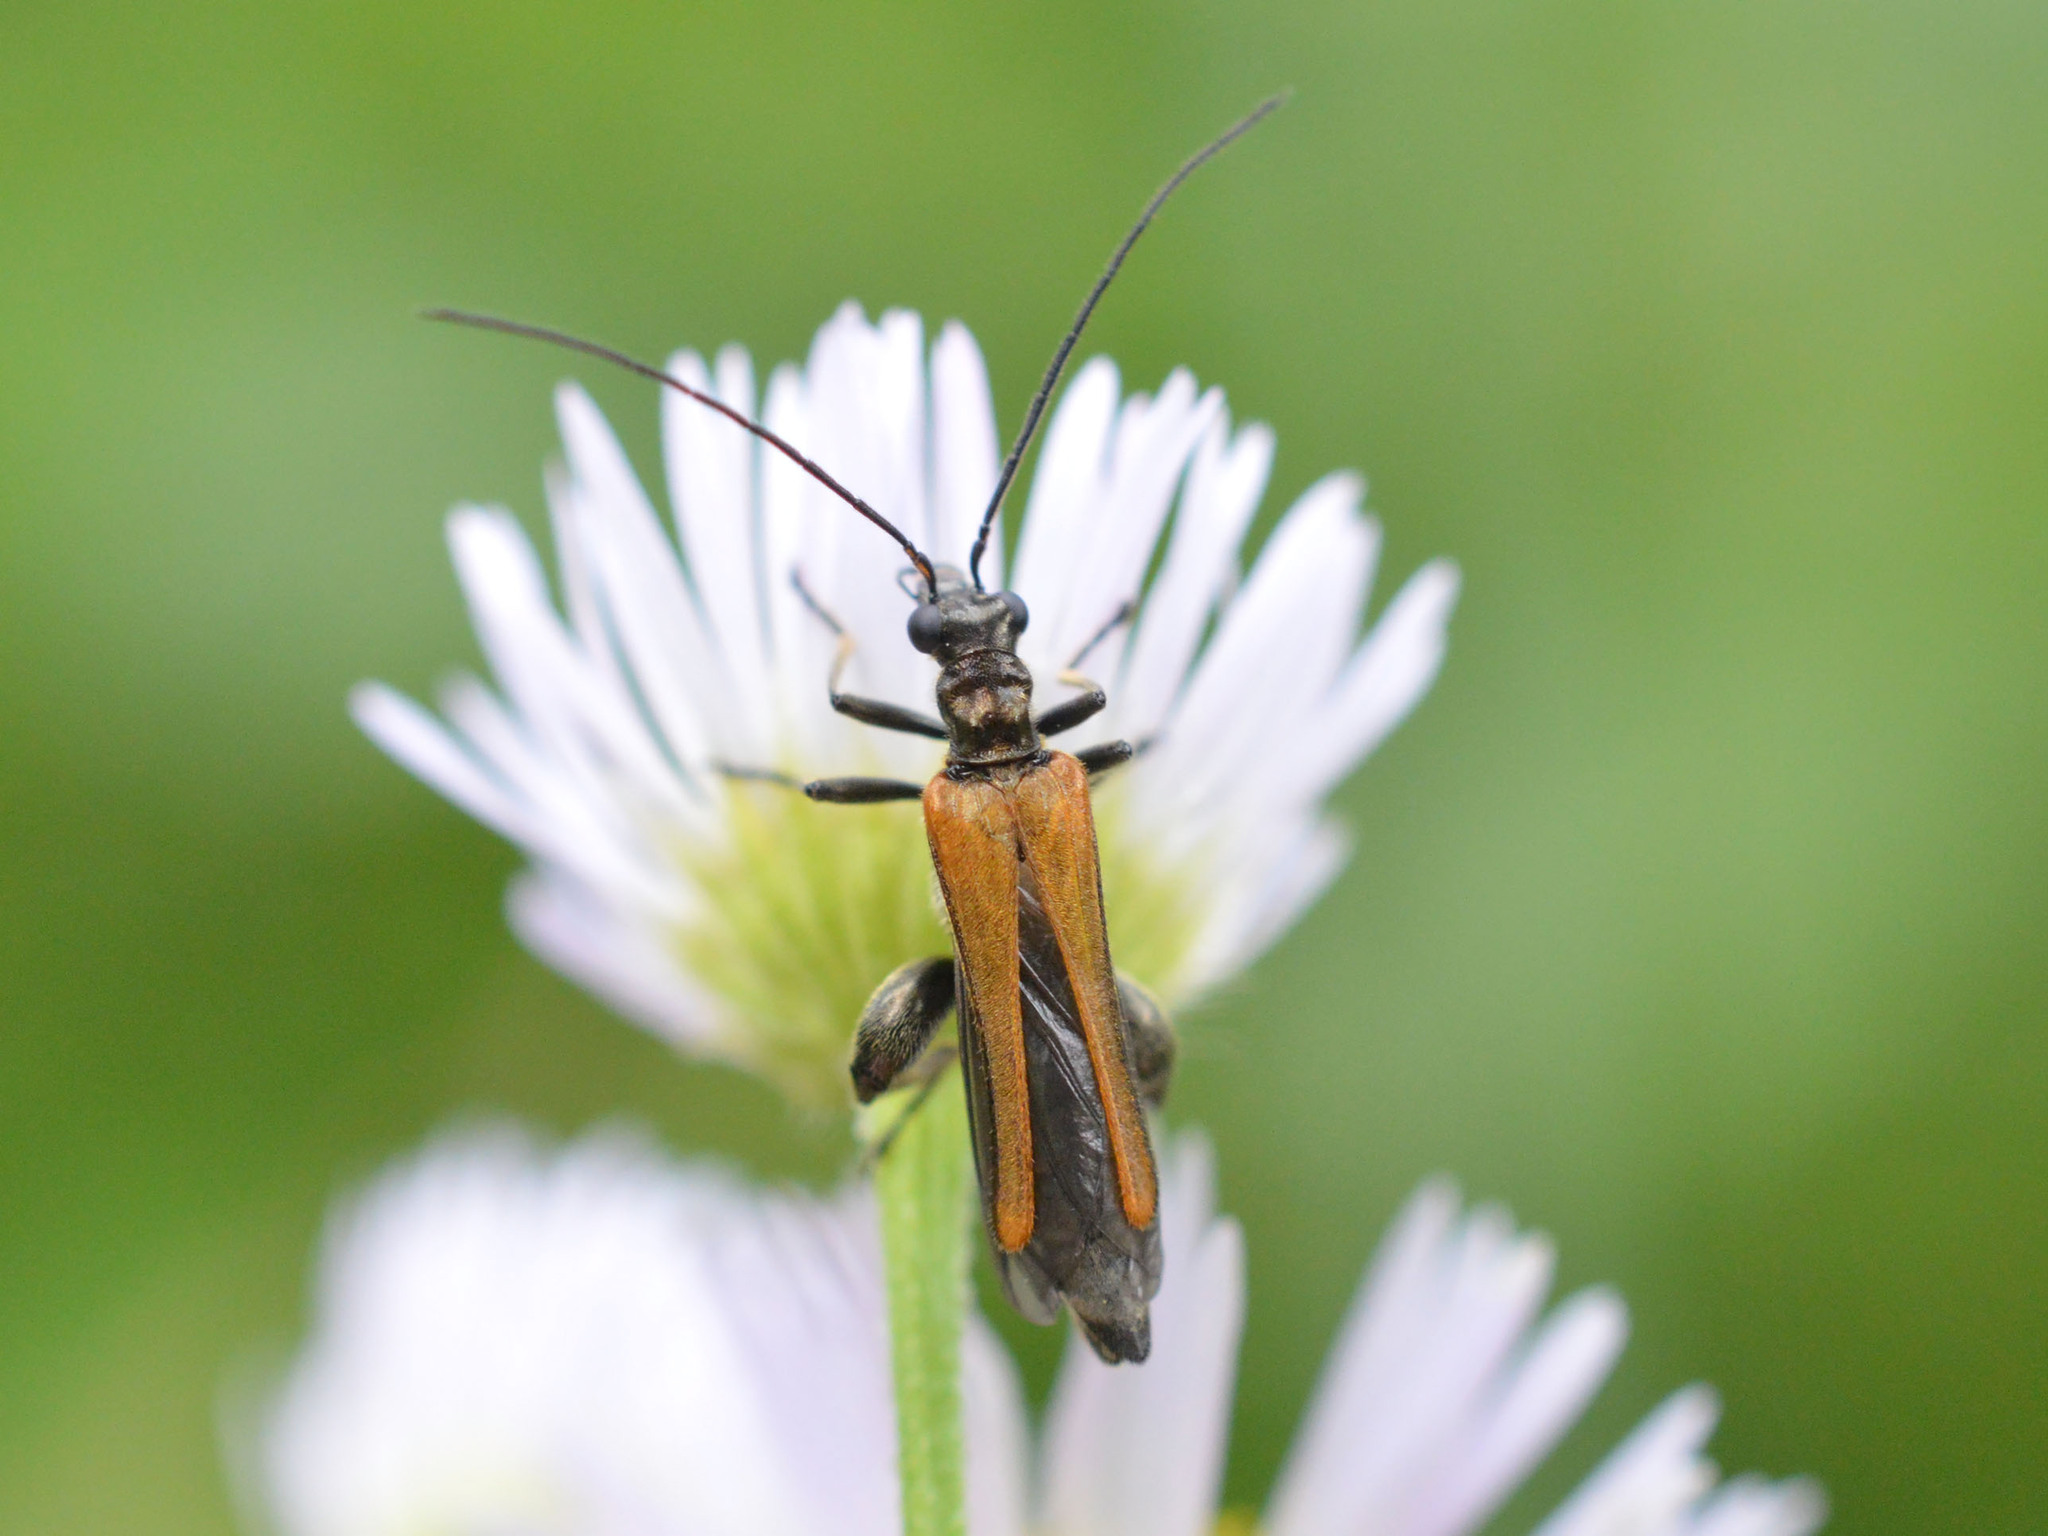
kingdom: Animalia
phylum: Arthropoda
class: Insecta
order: Coleoptera
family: Oedemeridae
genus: Oedemera
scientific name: Oedemera femorata
